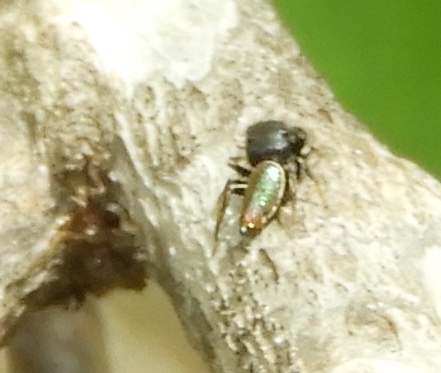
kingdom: Animalia
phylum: Arthropoda
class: Arachnida
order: Araneae
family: Salticidae
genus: Sassacus
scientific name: Sassacus vitis
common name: Jumping spiders
